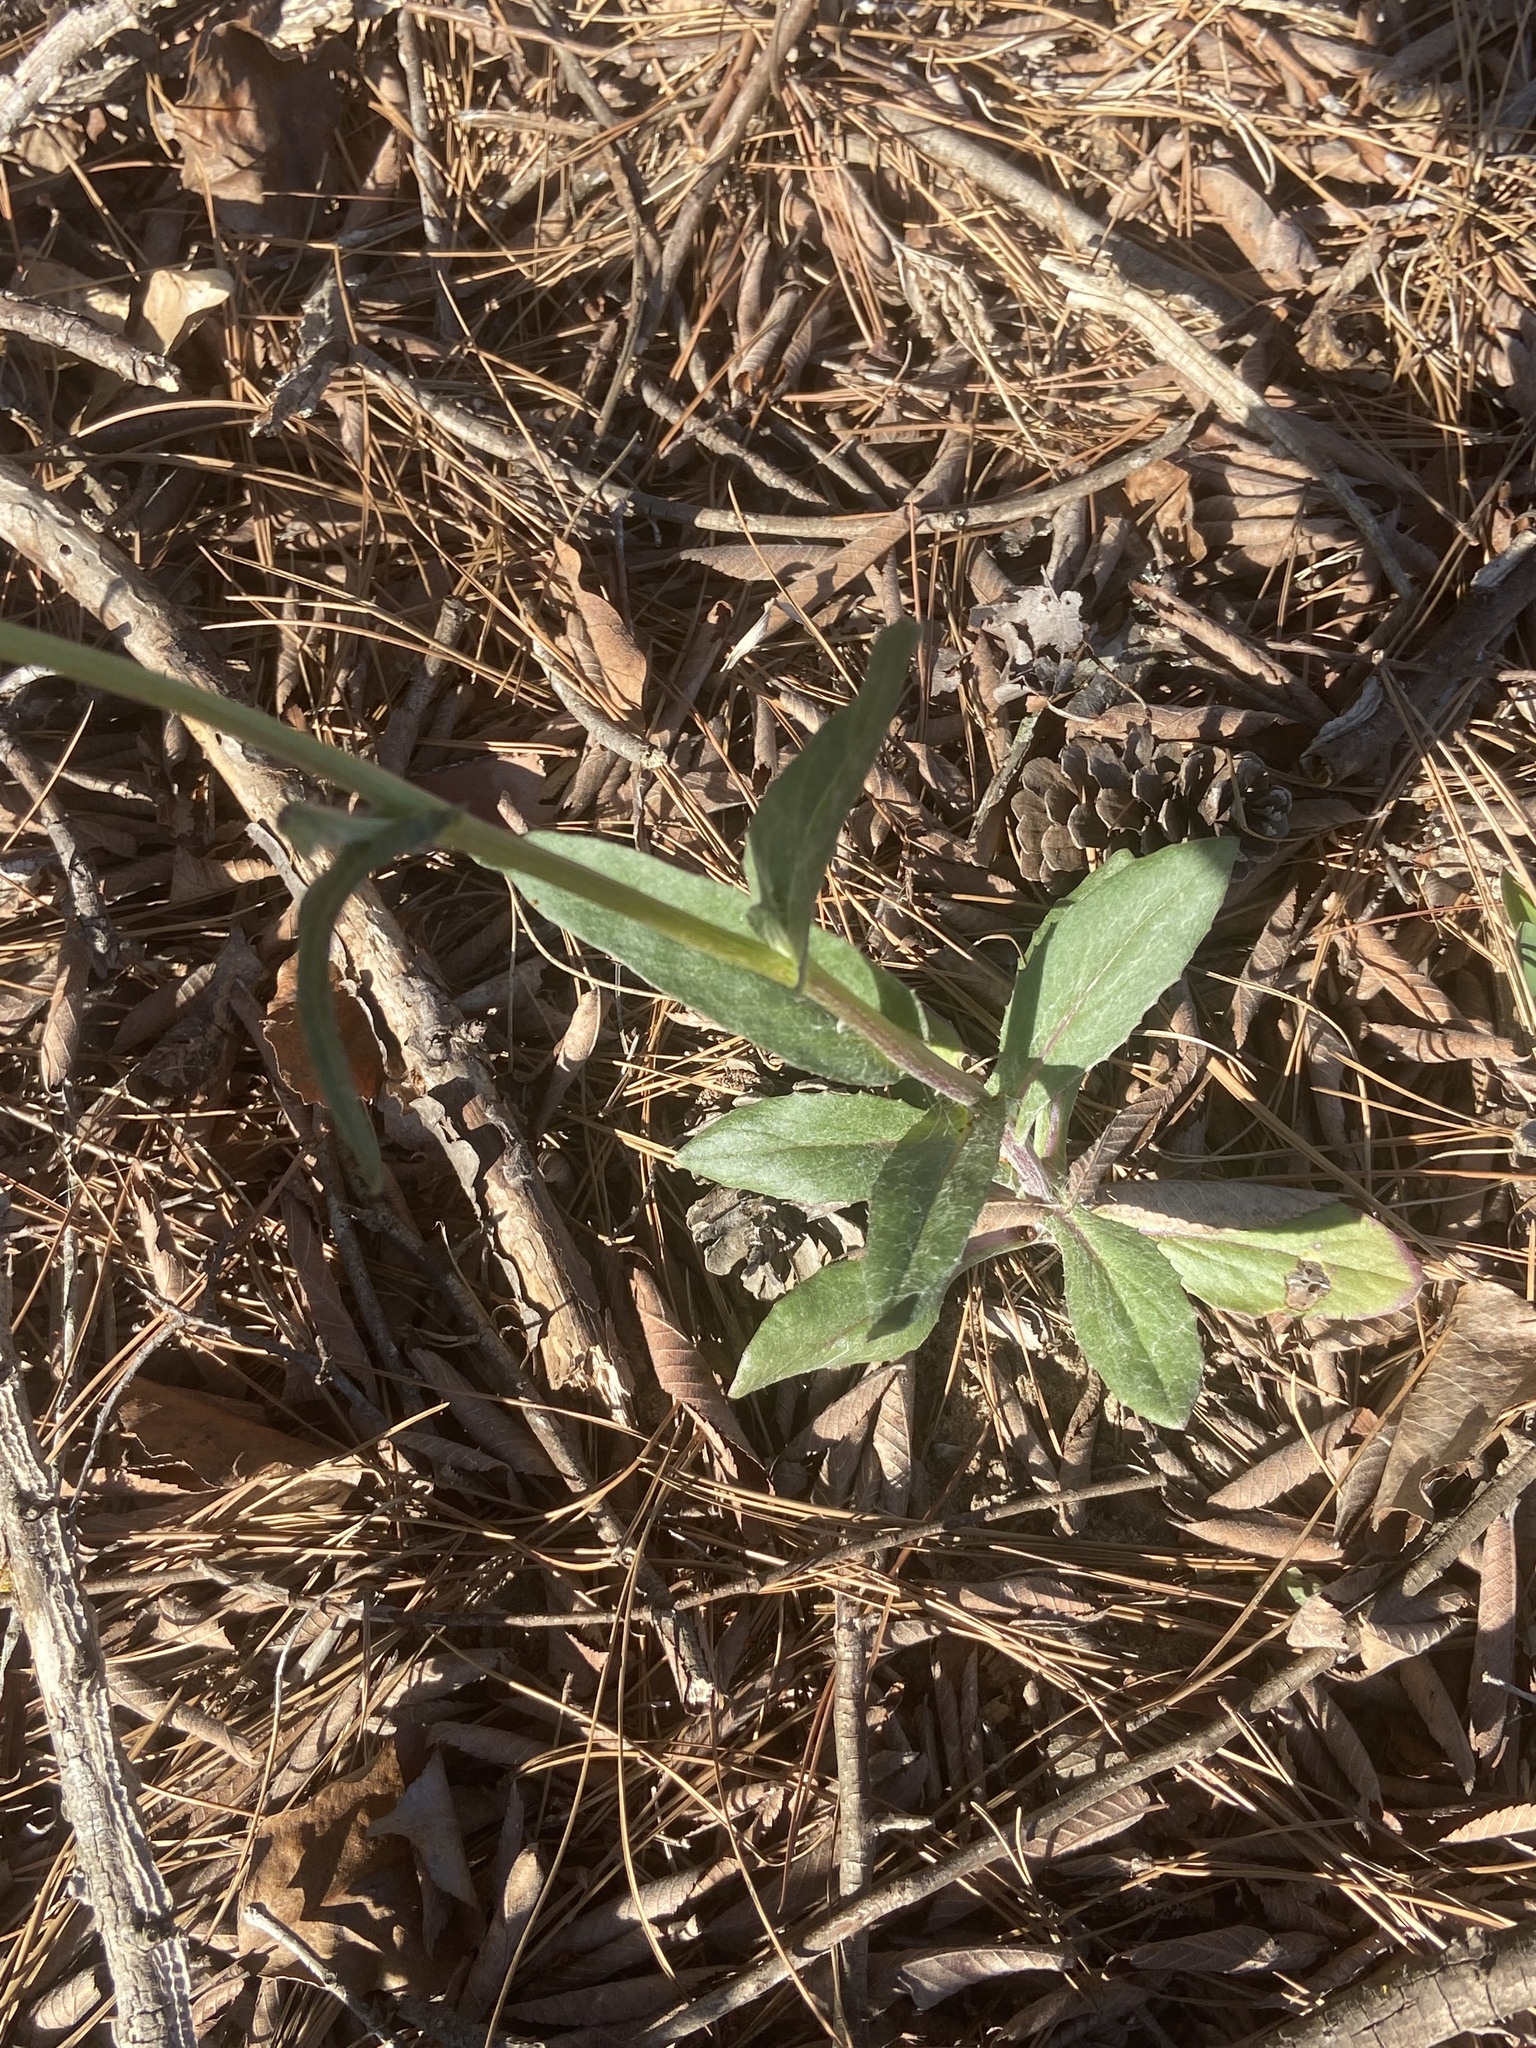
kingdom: Plantae
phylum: Tracheophyta
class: Magnoliopsida
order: Asterales
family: Asteraceae
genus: Senecio
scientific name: Senecio ampullaceus
